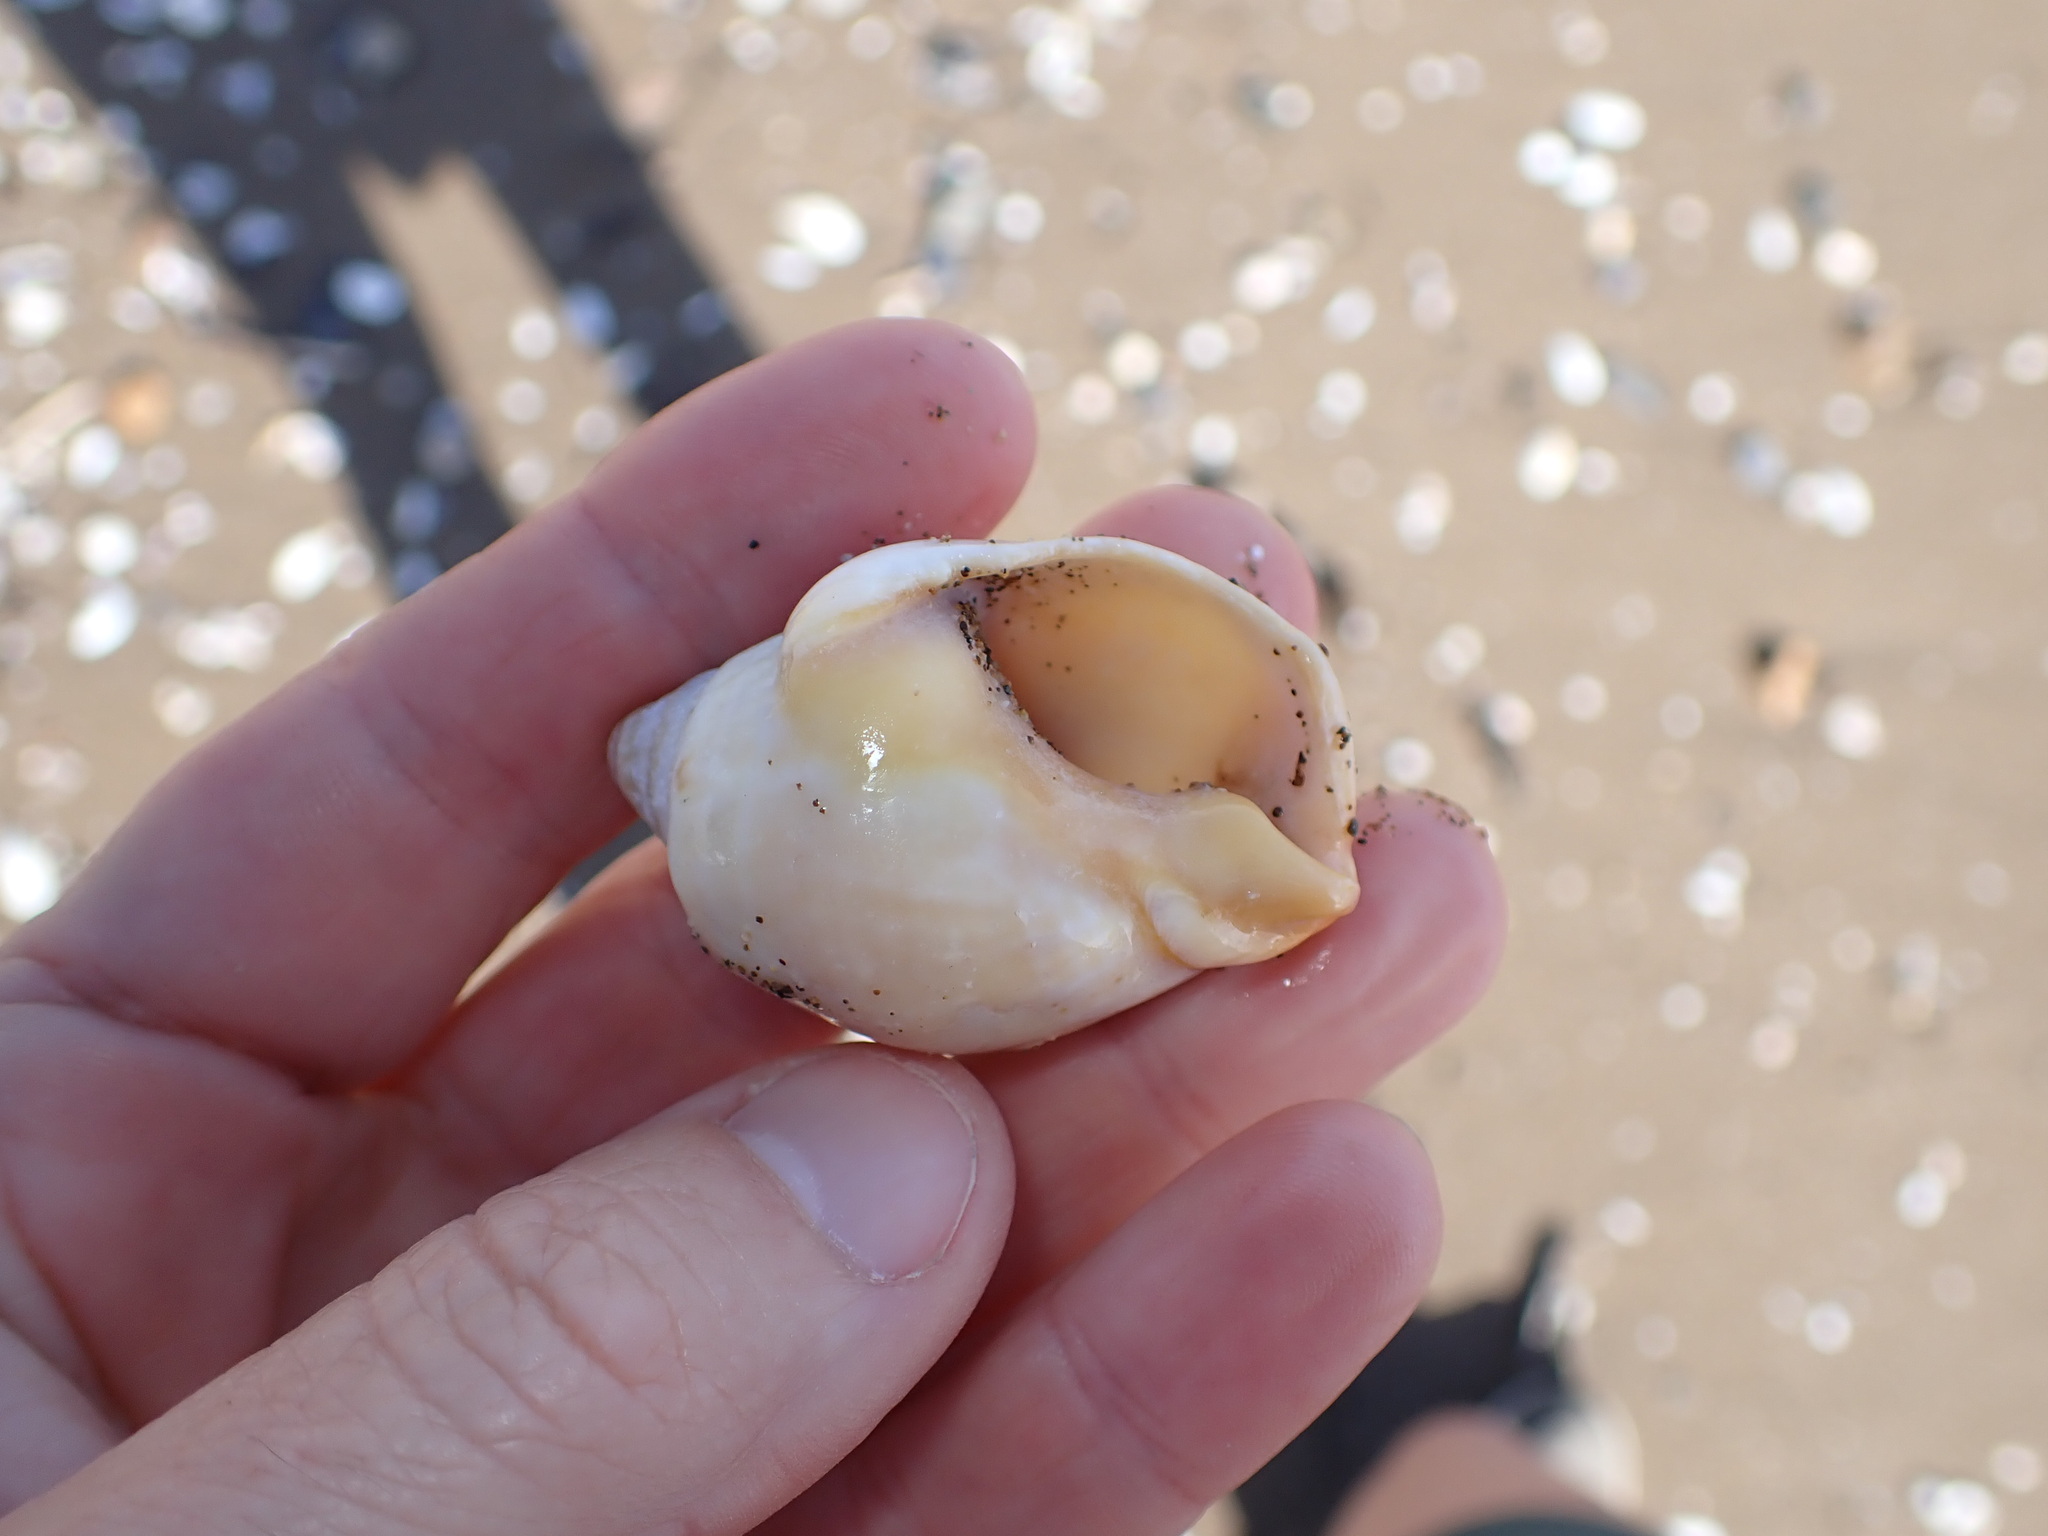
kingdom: Animalia
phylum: Mollusca
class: Gastropoda
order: Neogastropoda
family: Cominellidae
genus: Cominella
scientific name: Cominella adspersa
